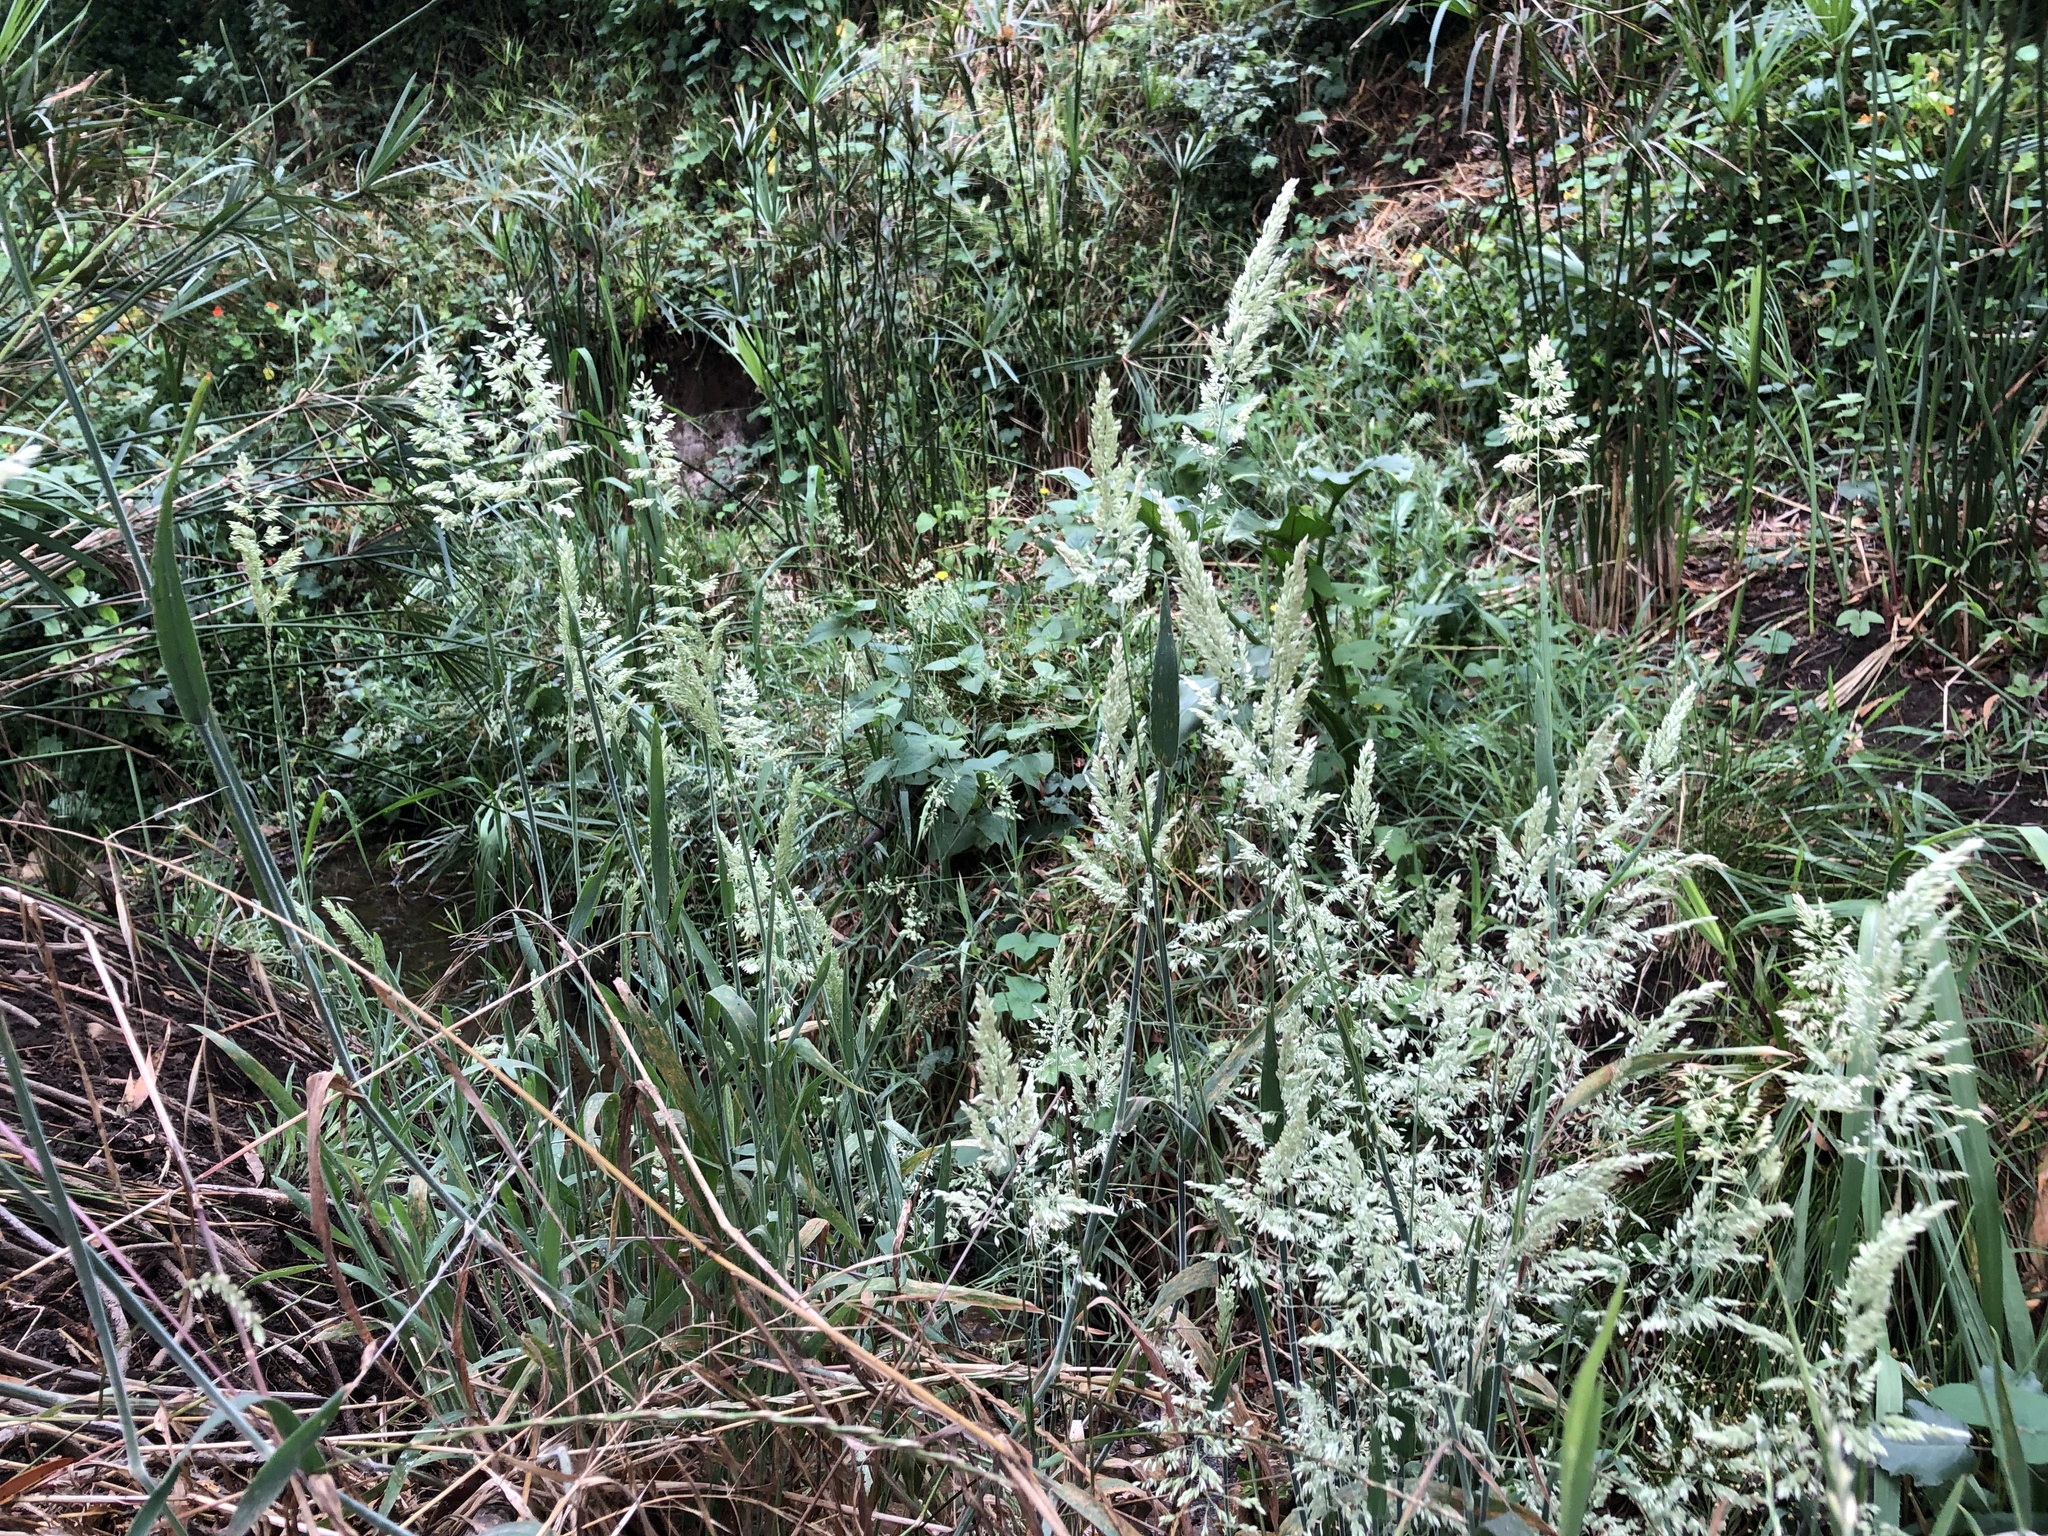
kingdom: Plantae
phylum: Tracheophyta
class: Liliopsida
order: Poales
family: Poaceae
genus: Holcus
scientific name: Holcus lanatus
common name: Yorkshire-fog
